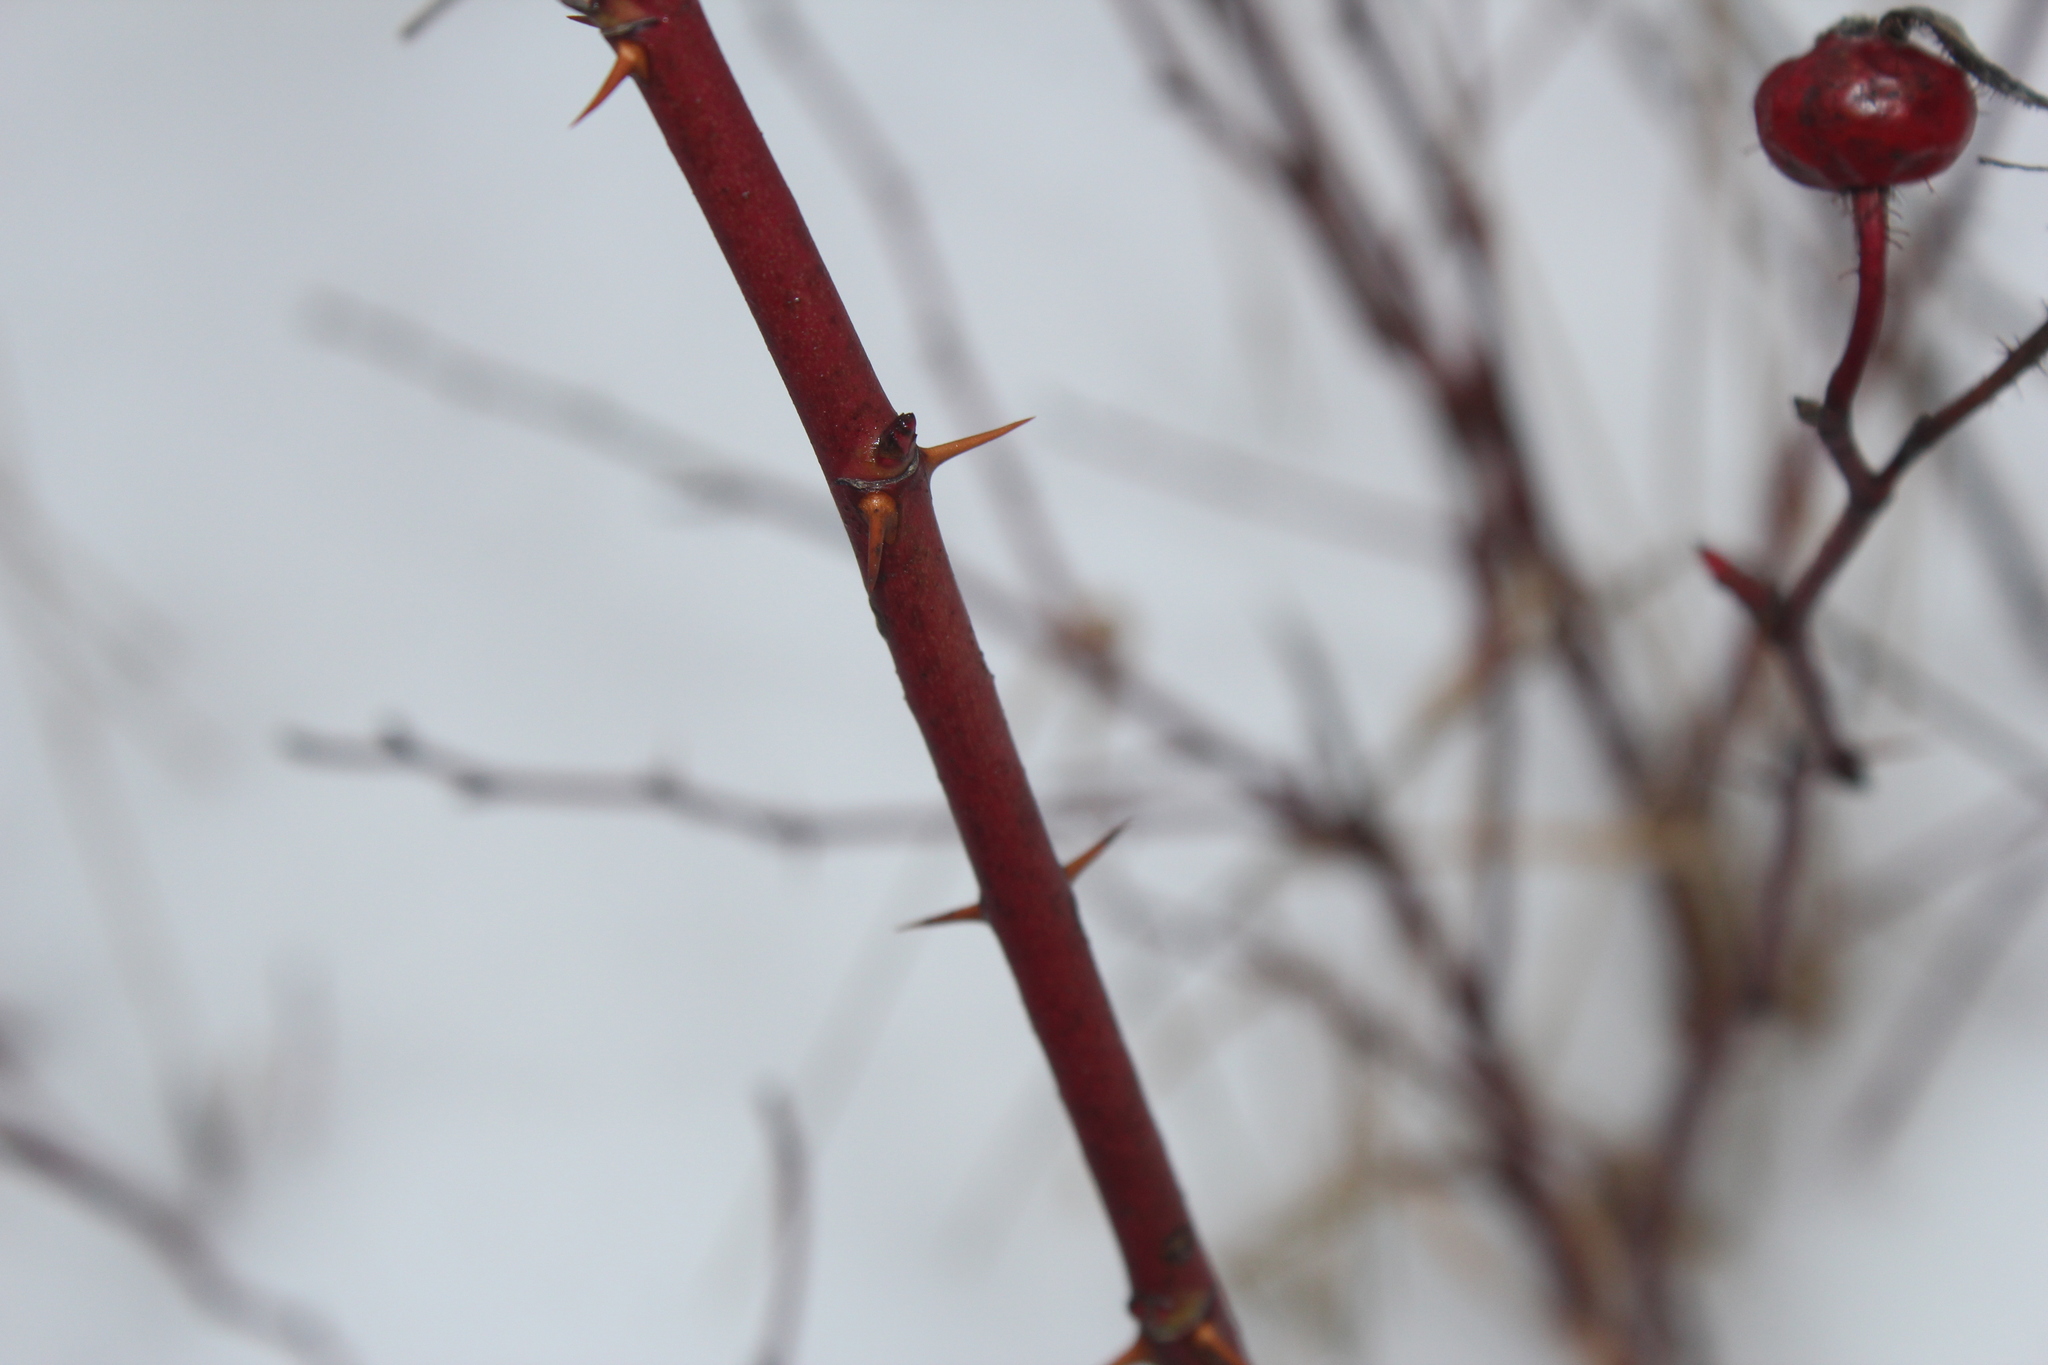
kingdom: Plantae
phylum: Tracheophyta
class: Magnoliopsida
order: Rosales
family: Rosaceae
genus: Rosa
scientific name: Rosa carolina
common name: Pasture rose
